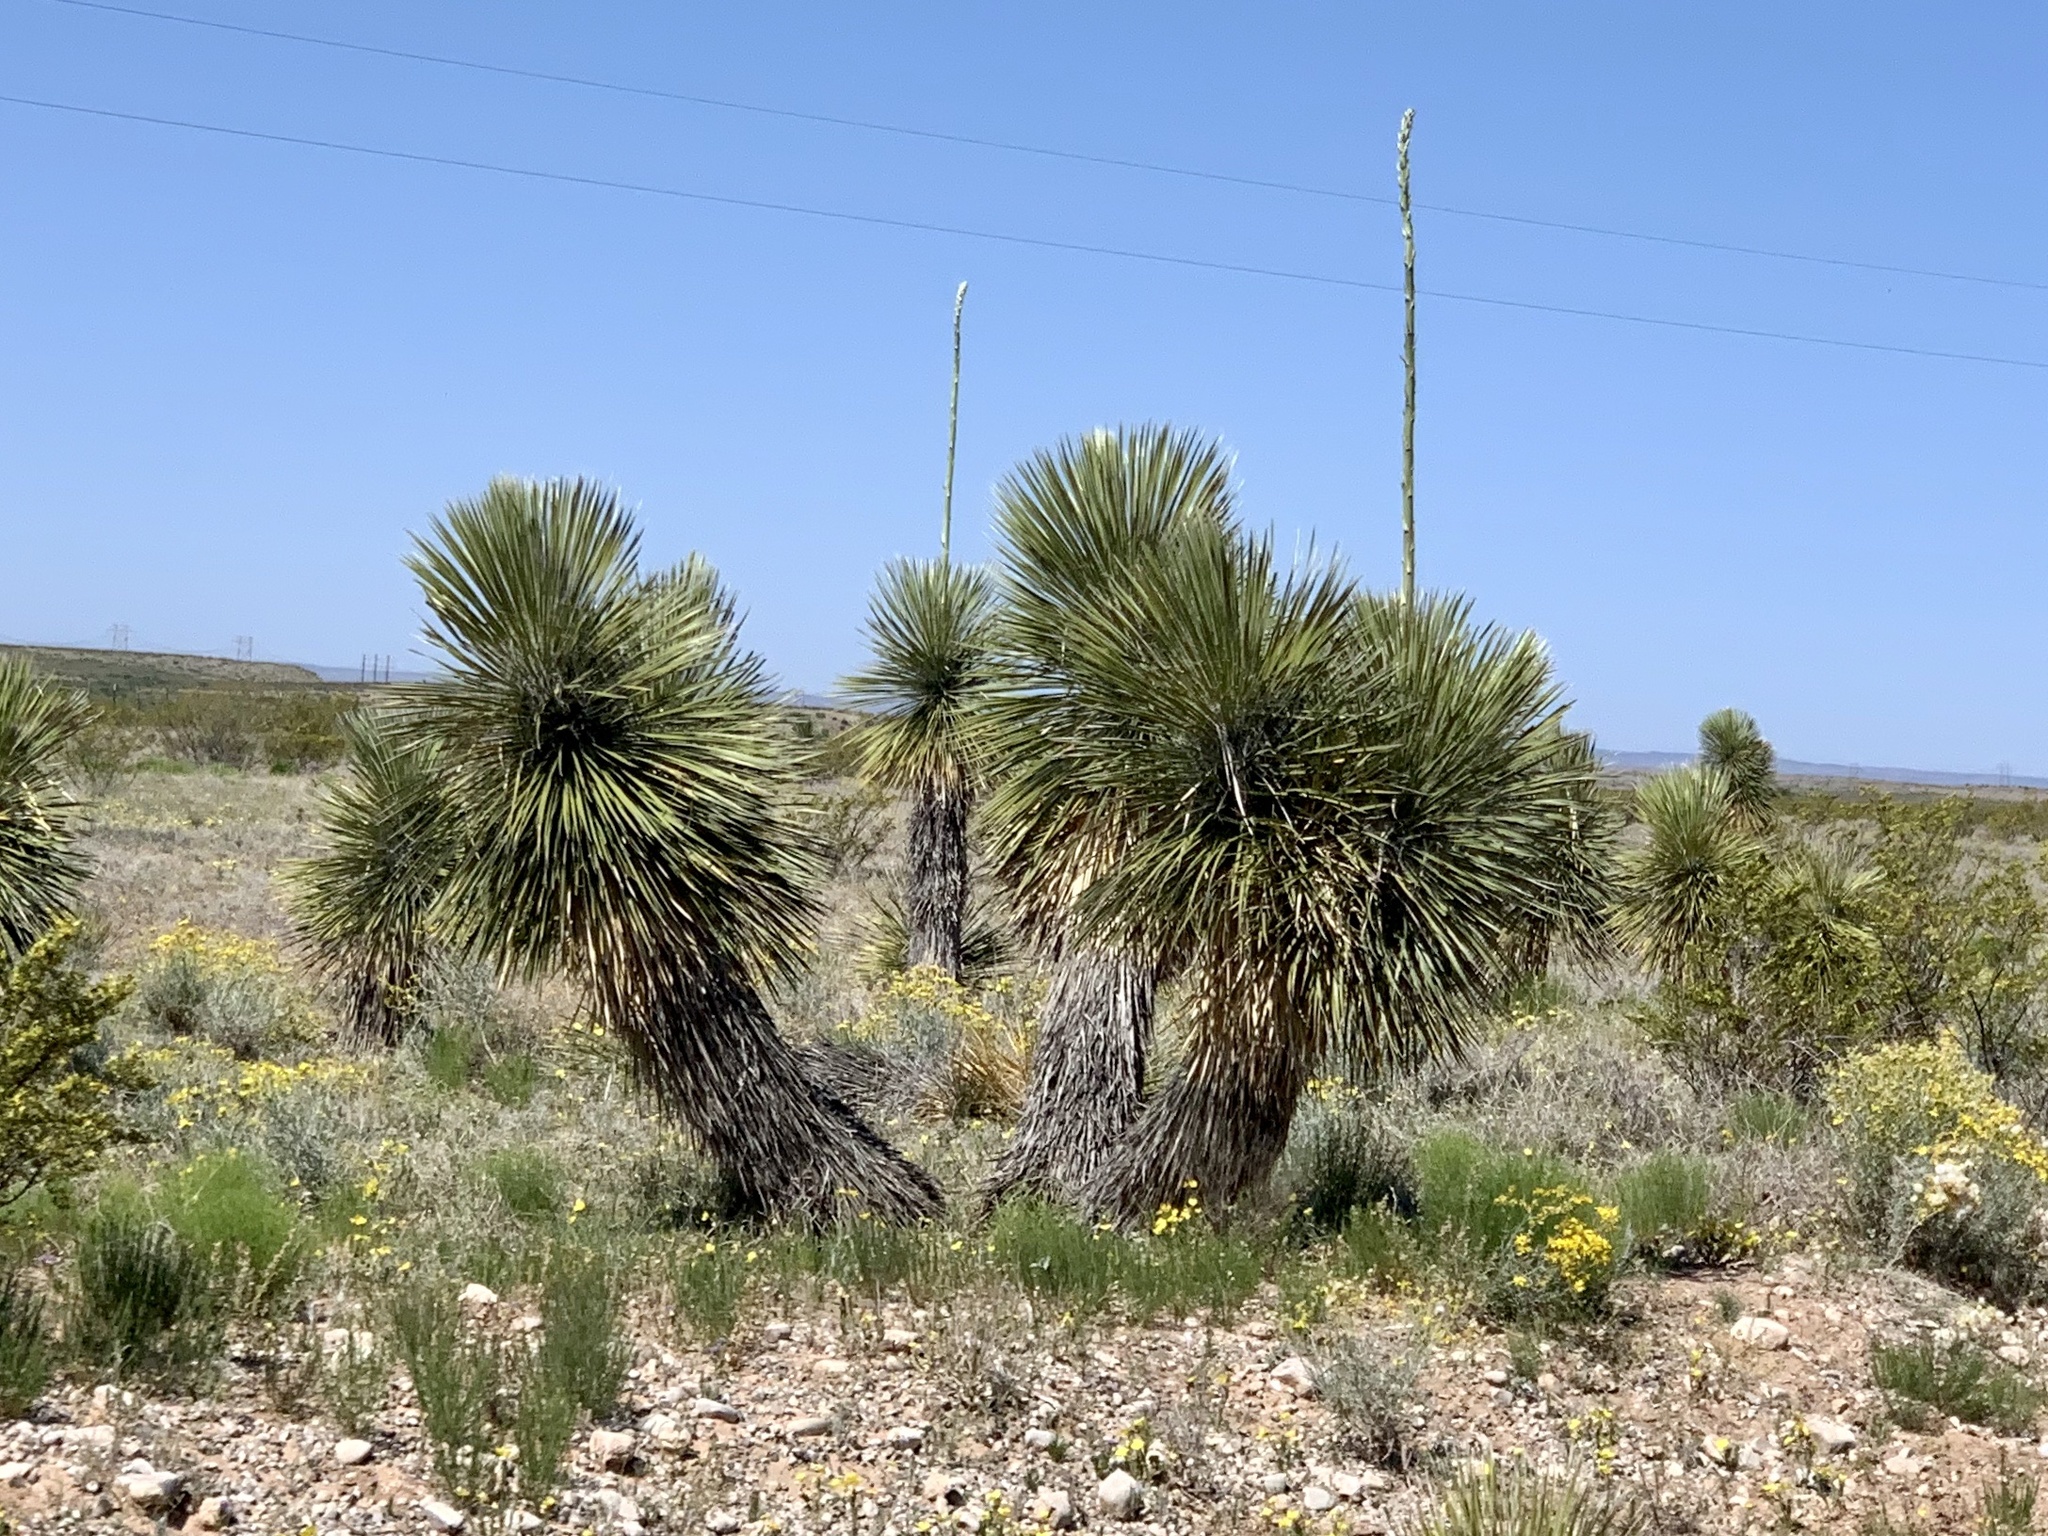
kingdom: Plantae
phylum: Tracheophyta
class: Liliopsida
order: Asparagales
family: Asparagaceae
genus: Yucca
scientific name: Yucca elata
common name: Palmella
